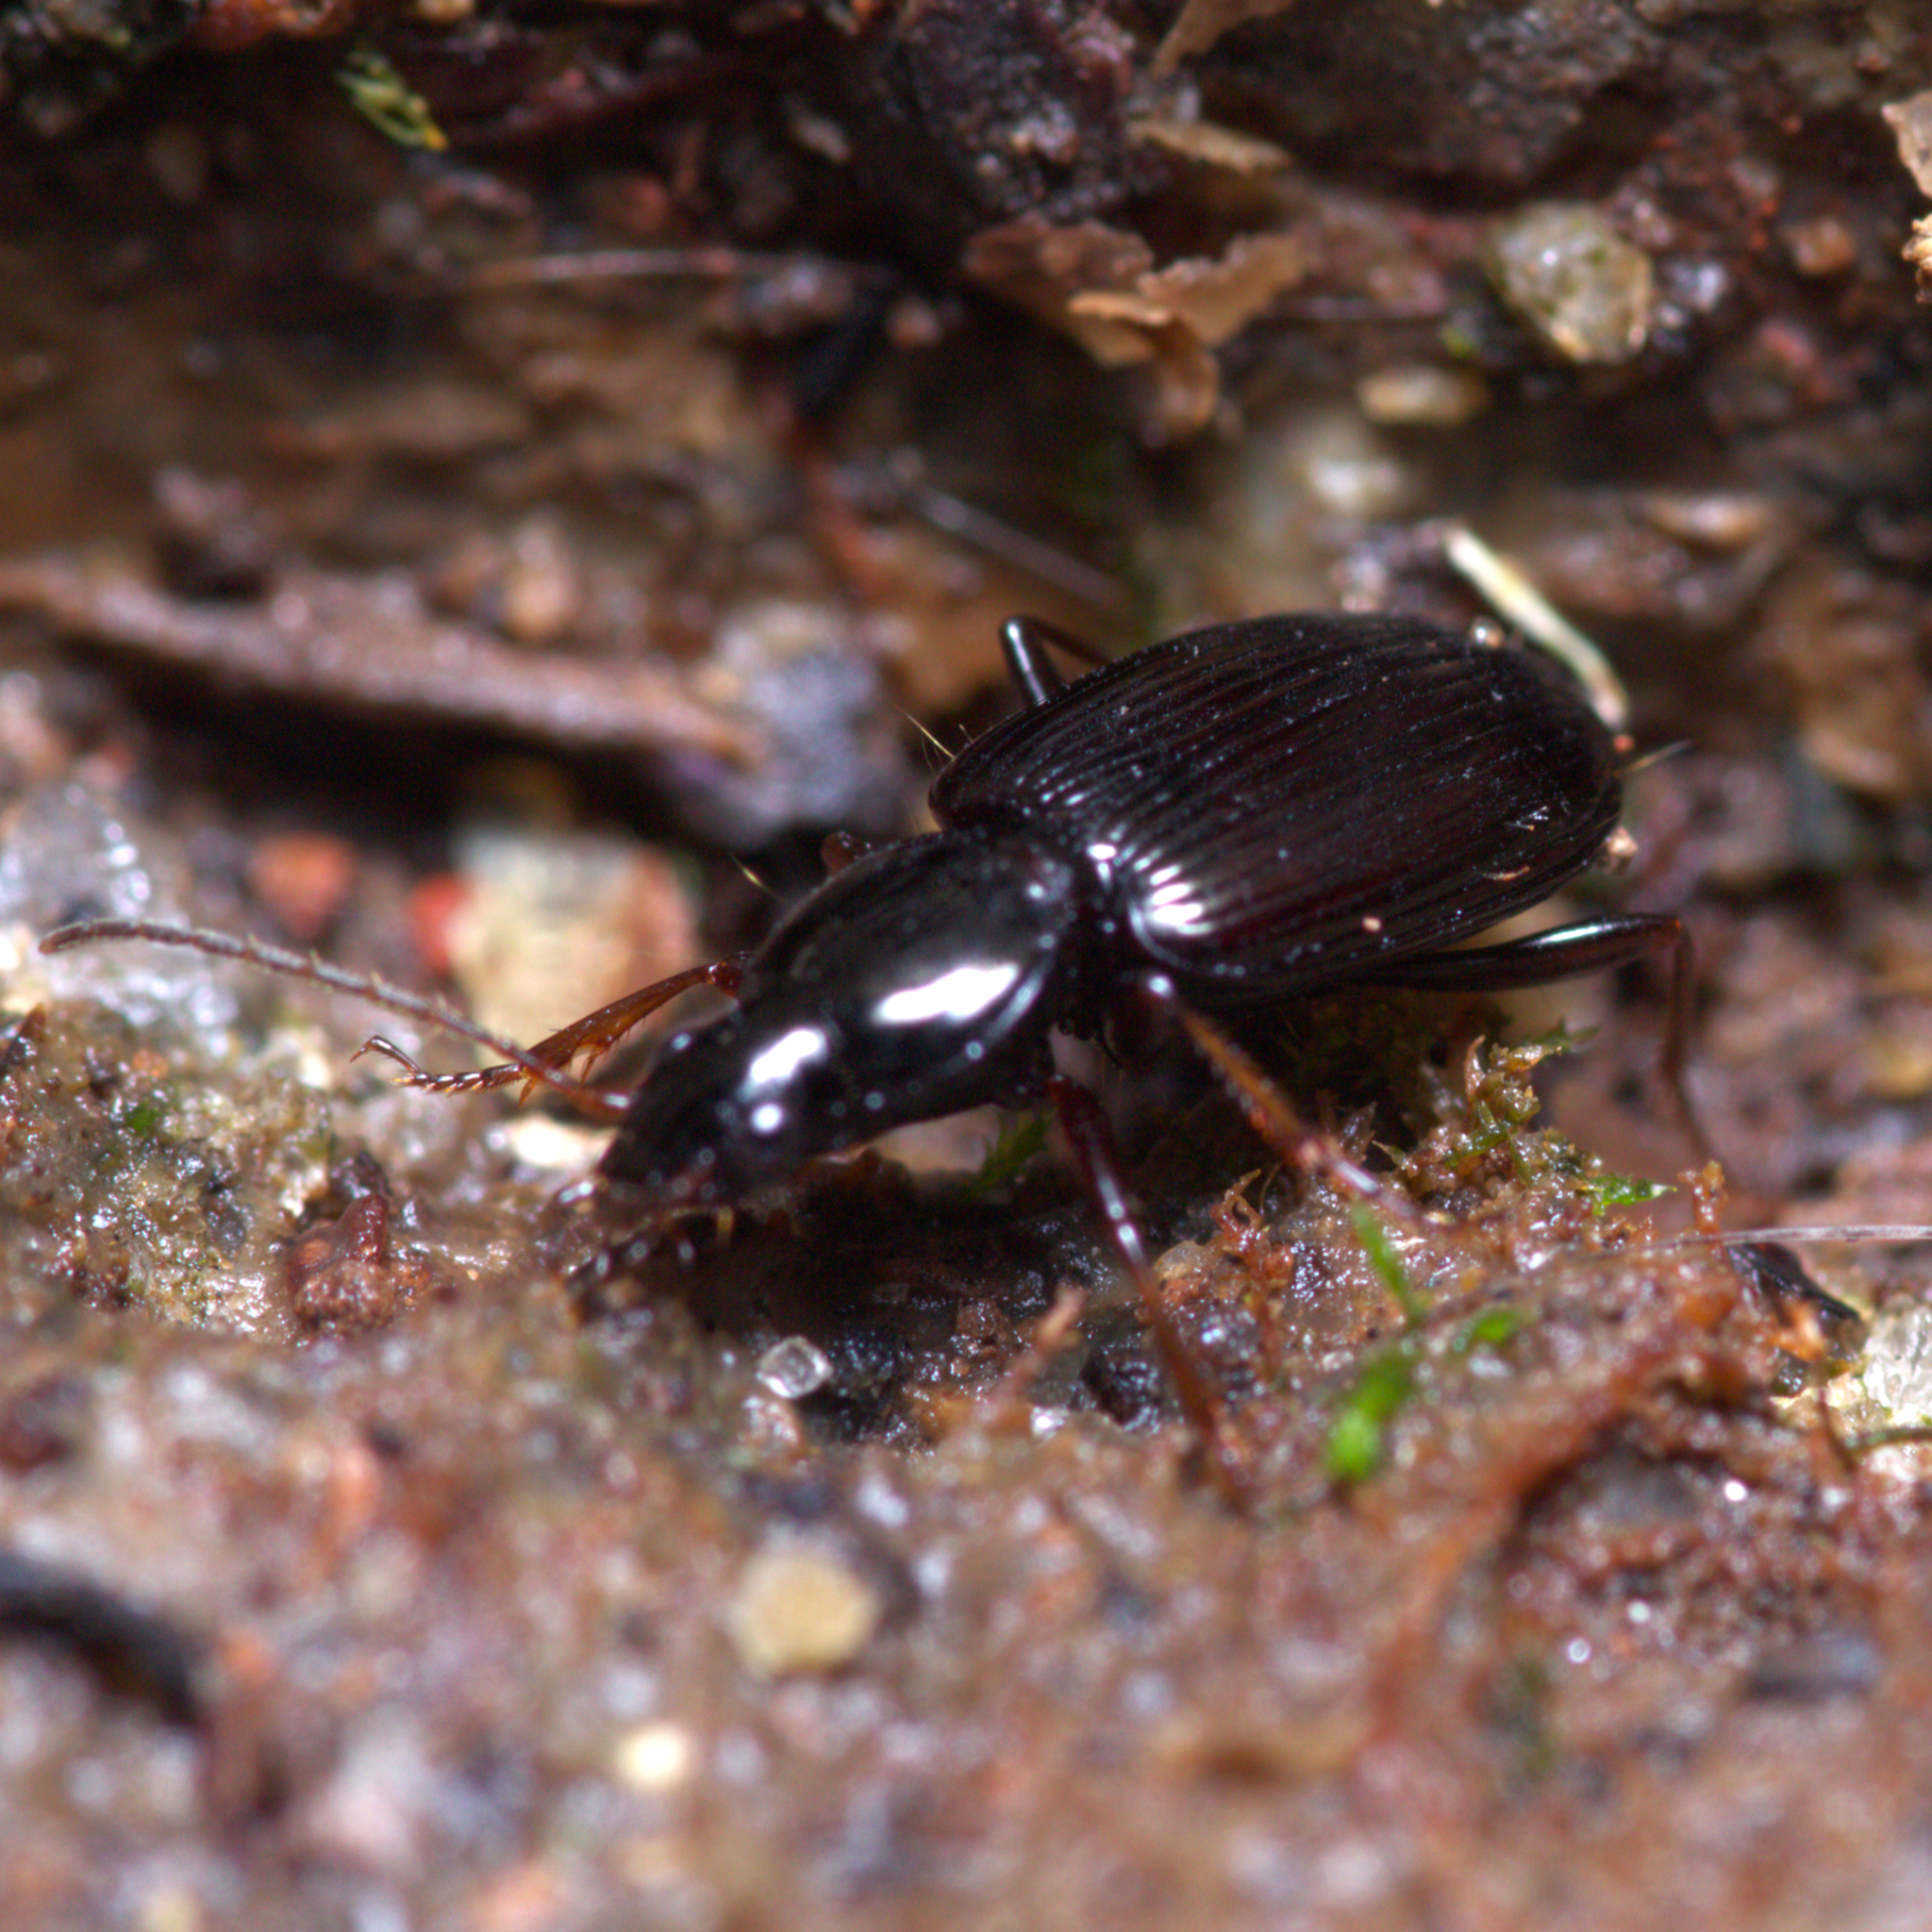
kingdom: Animalia
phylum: Arthropoda
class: Insecta
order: Coleoptera
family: Carabidae
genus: Agonum
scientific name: Agonum punctiforme
